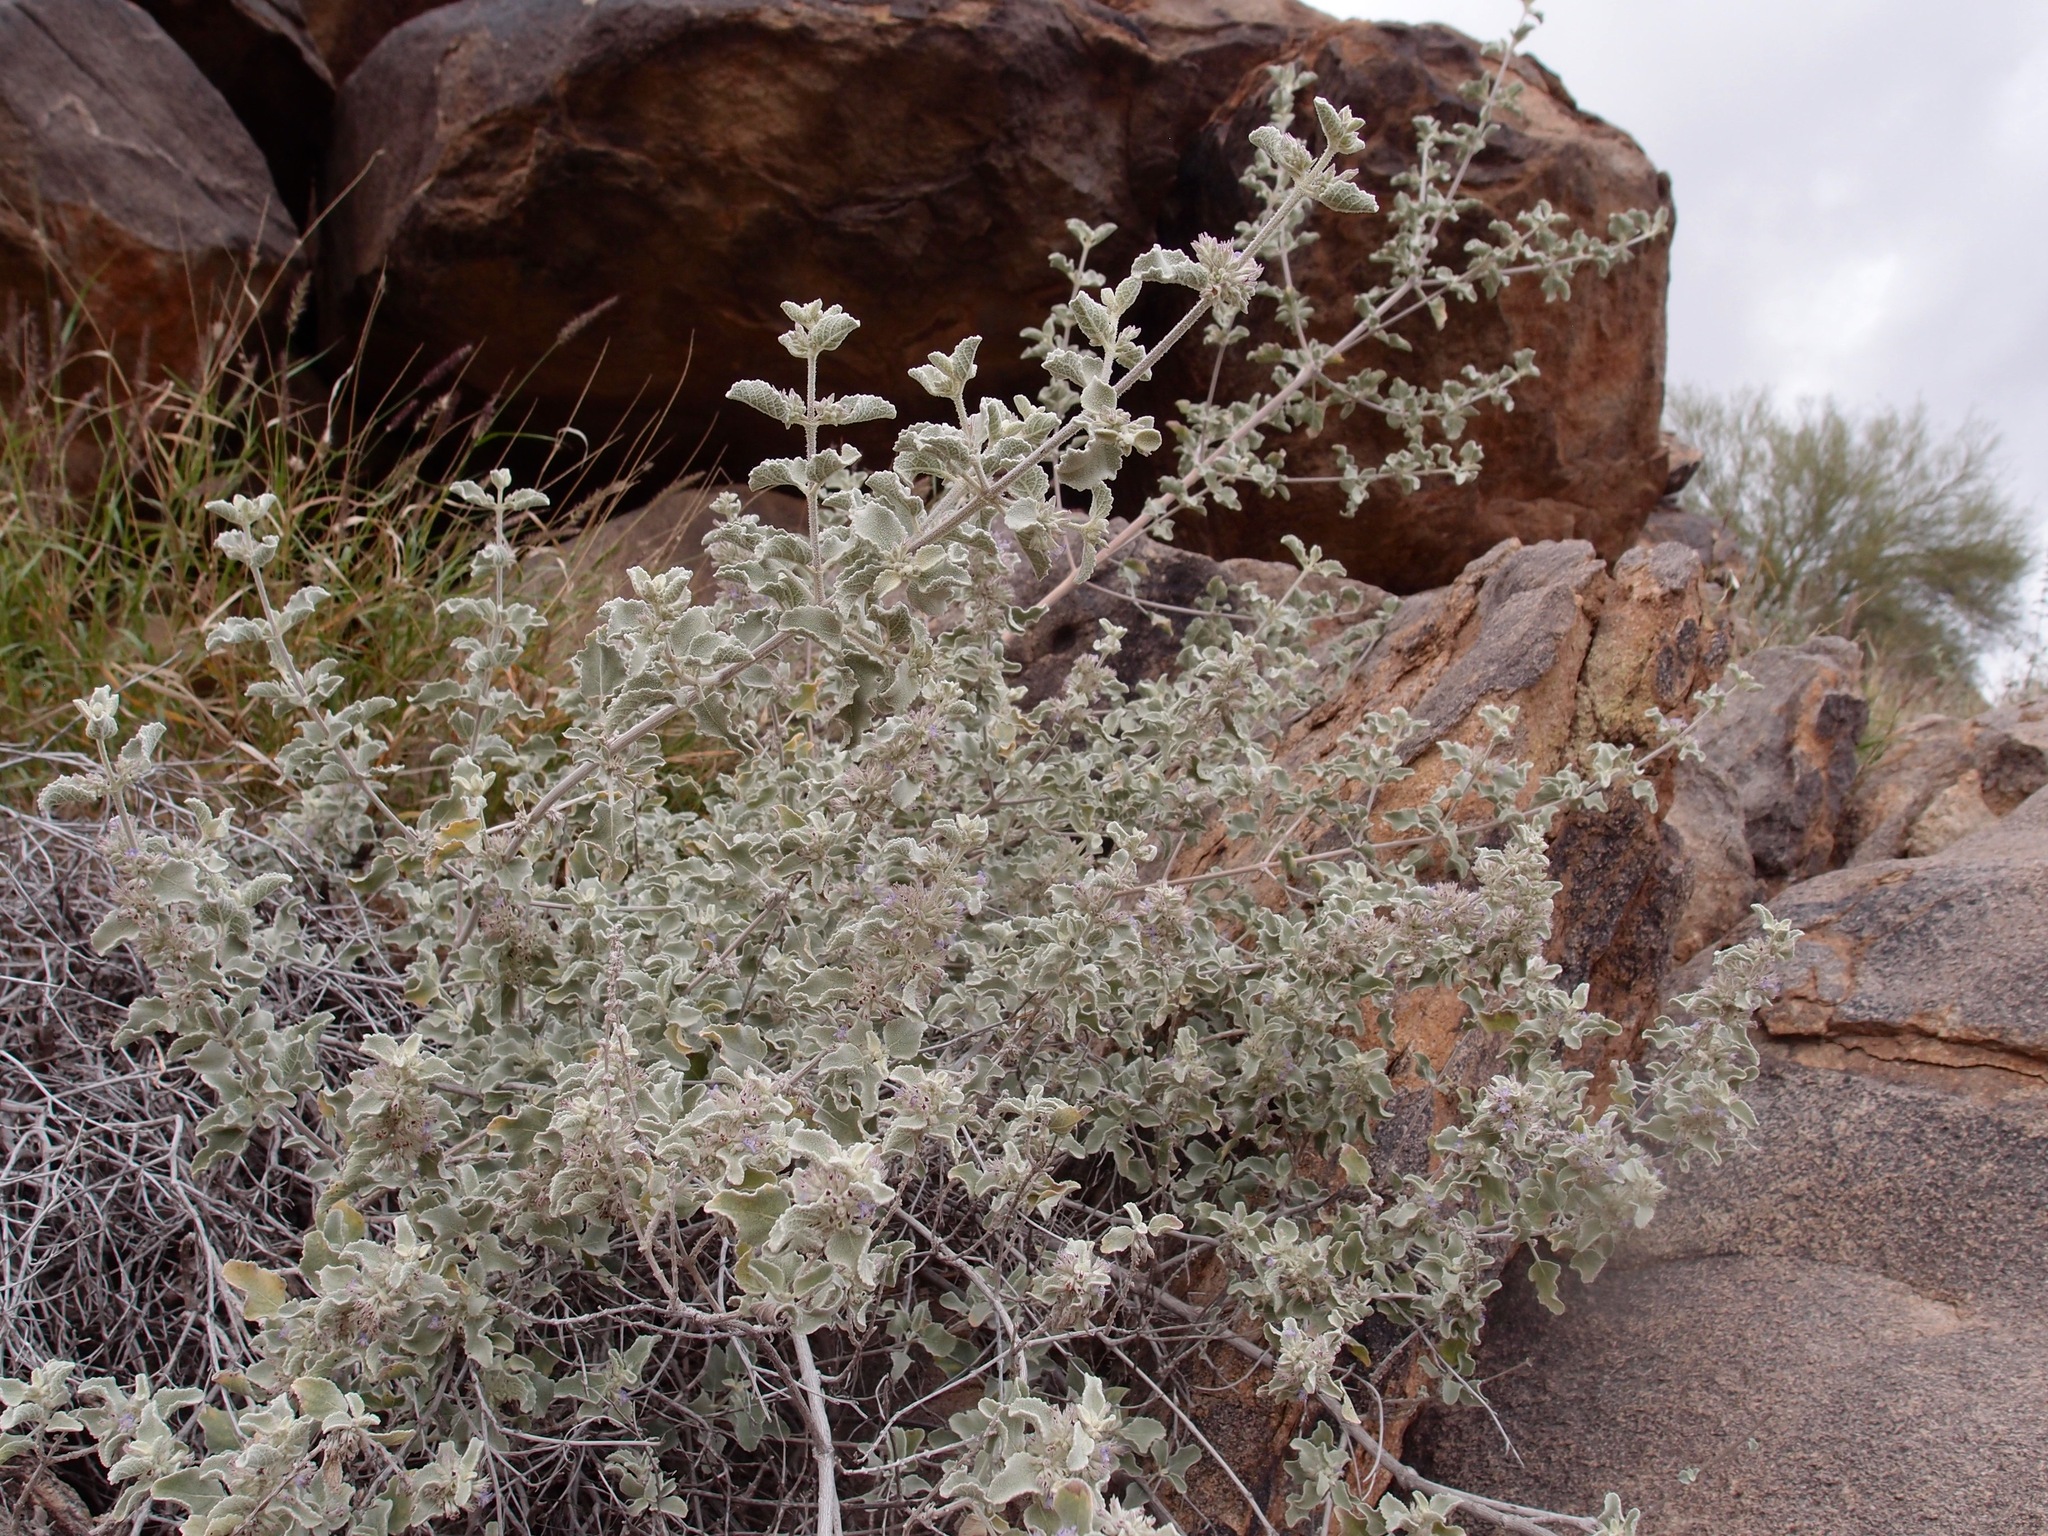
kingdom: Plantae
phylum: Tracheophyta
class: Magnoliopsida
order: Lamiales
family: Lamiaceae
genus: Condea
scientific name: Condea emoryi
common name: Chia
